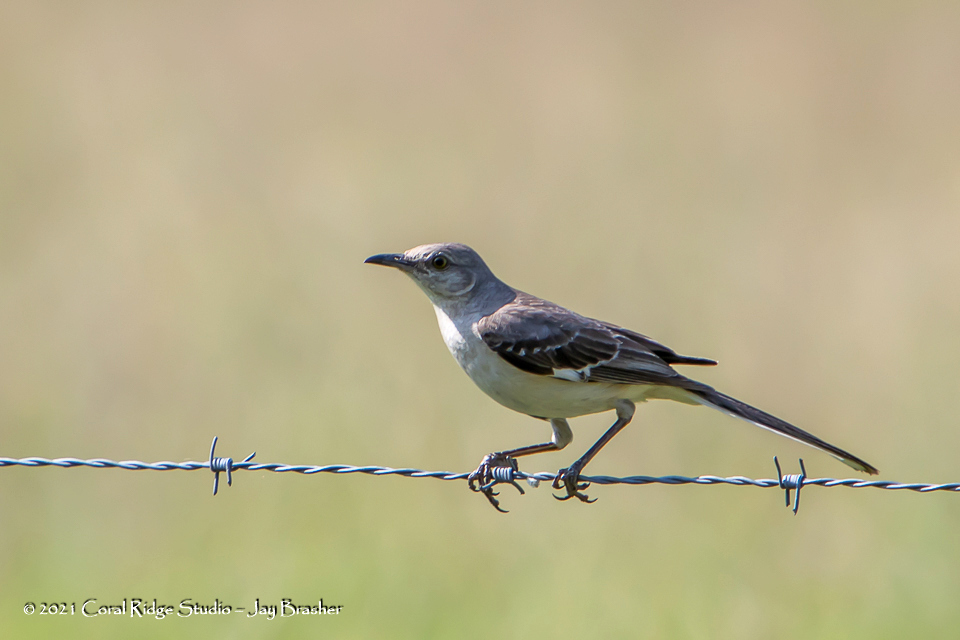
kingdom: Animalia
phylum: Chordata
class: Aves
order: Passeriformes
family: Mimidae
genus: Mimus
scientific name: Mimus polyglottos
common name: Northern mockingbird
